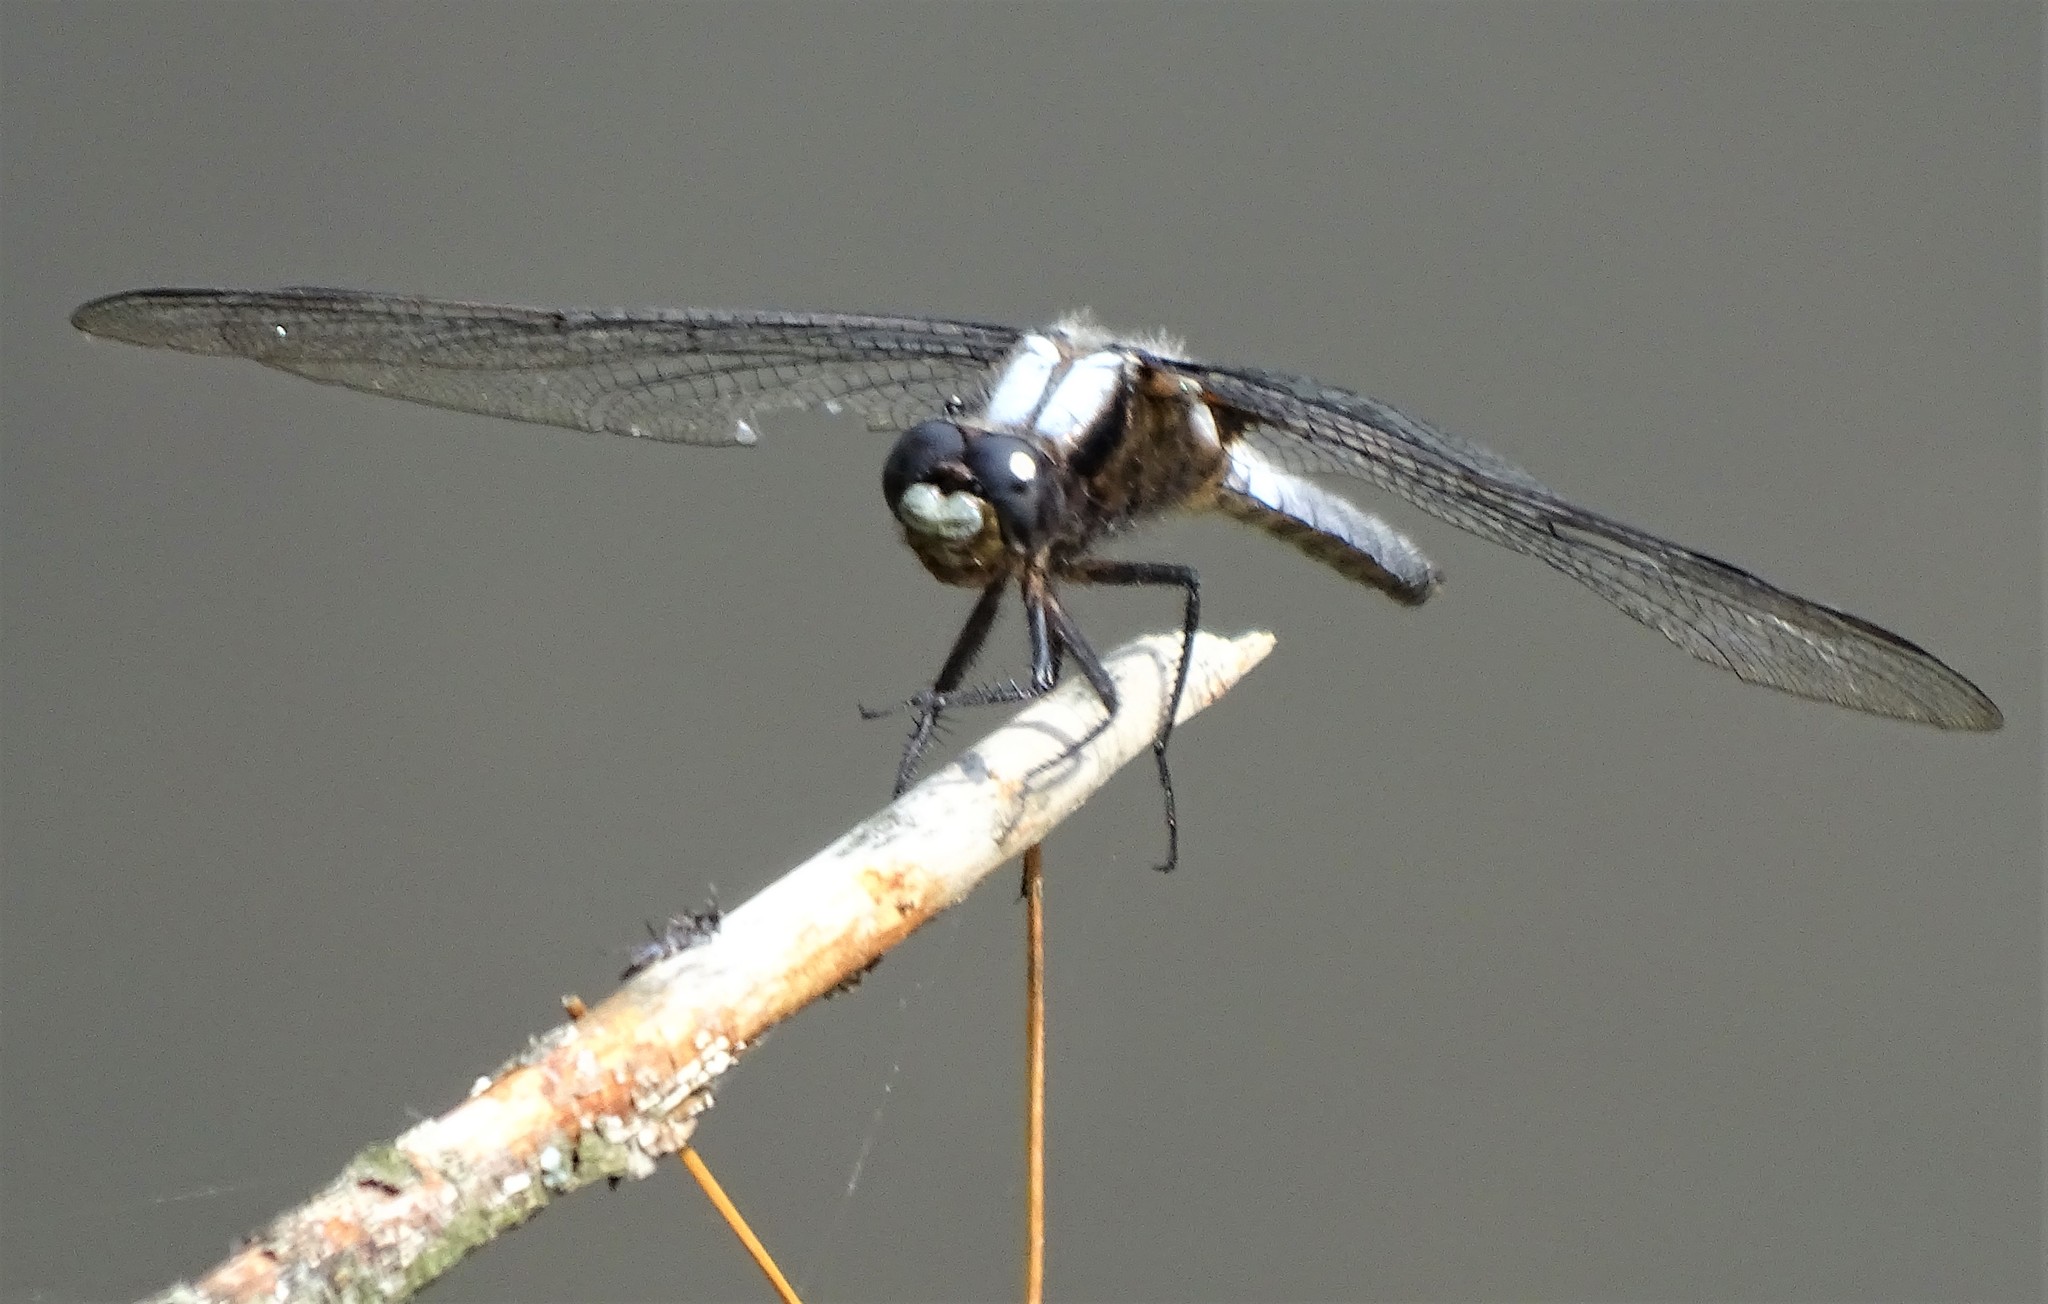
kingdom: Animalia
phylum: Arthropoda
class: Insecta
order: Odonata
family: Libellulidae
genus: Ladona
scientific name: Ladona julia
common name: Chalk-fronted corporal
